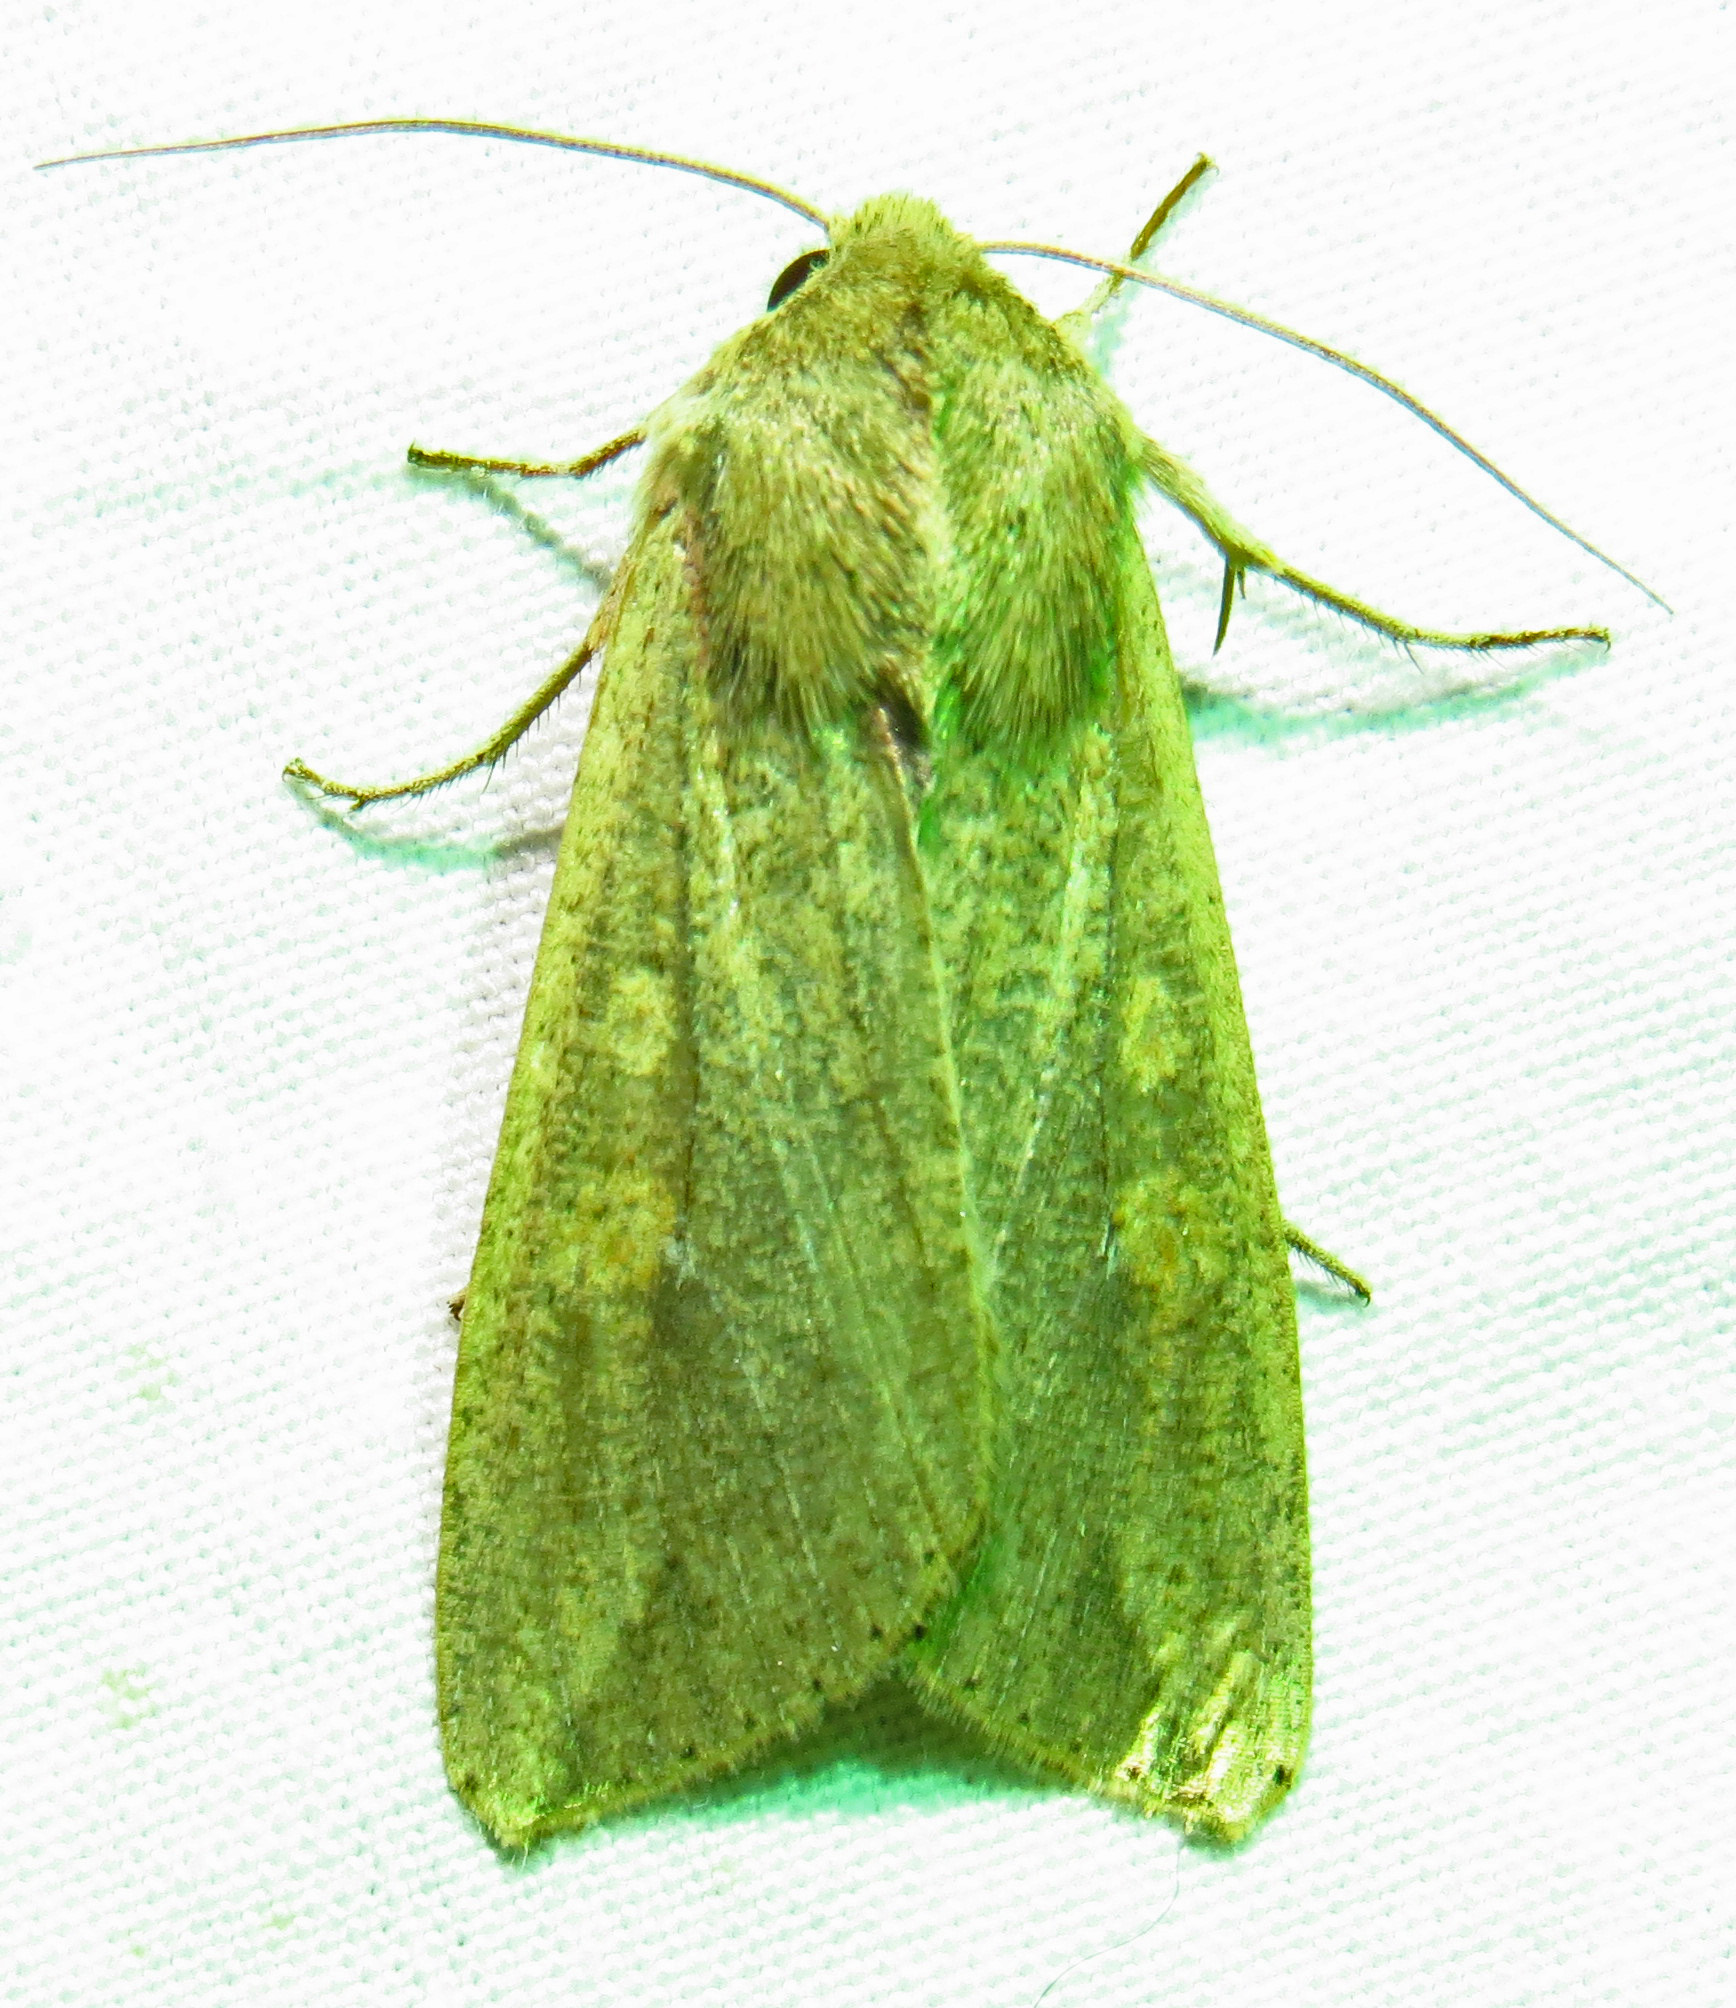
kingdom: Animalia
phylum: Arthropoda
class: Insecta
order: Lepidoptera
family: Noctuidae
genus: Mythimna
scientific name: Mythimna unipuncta
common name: White-speck
